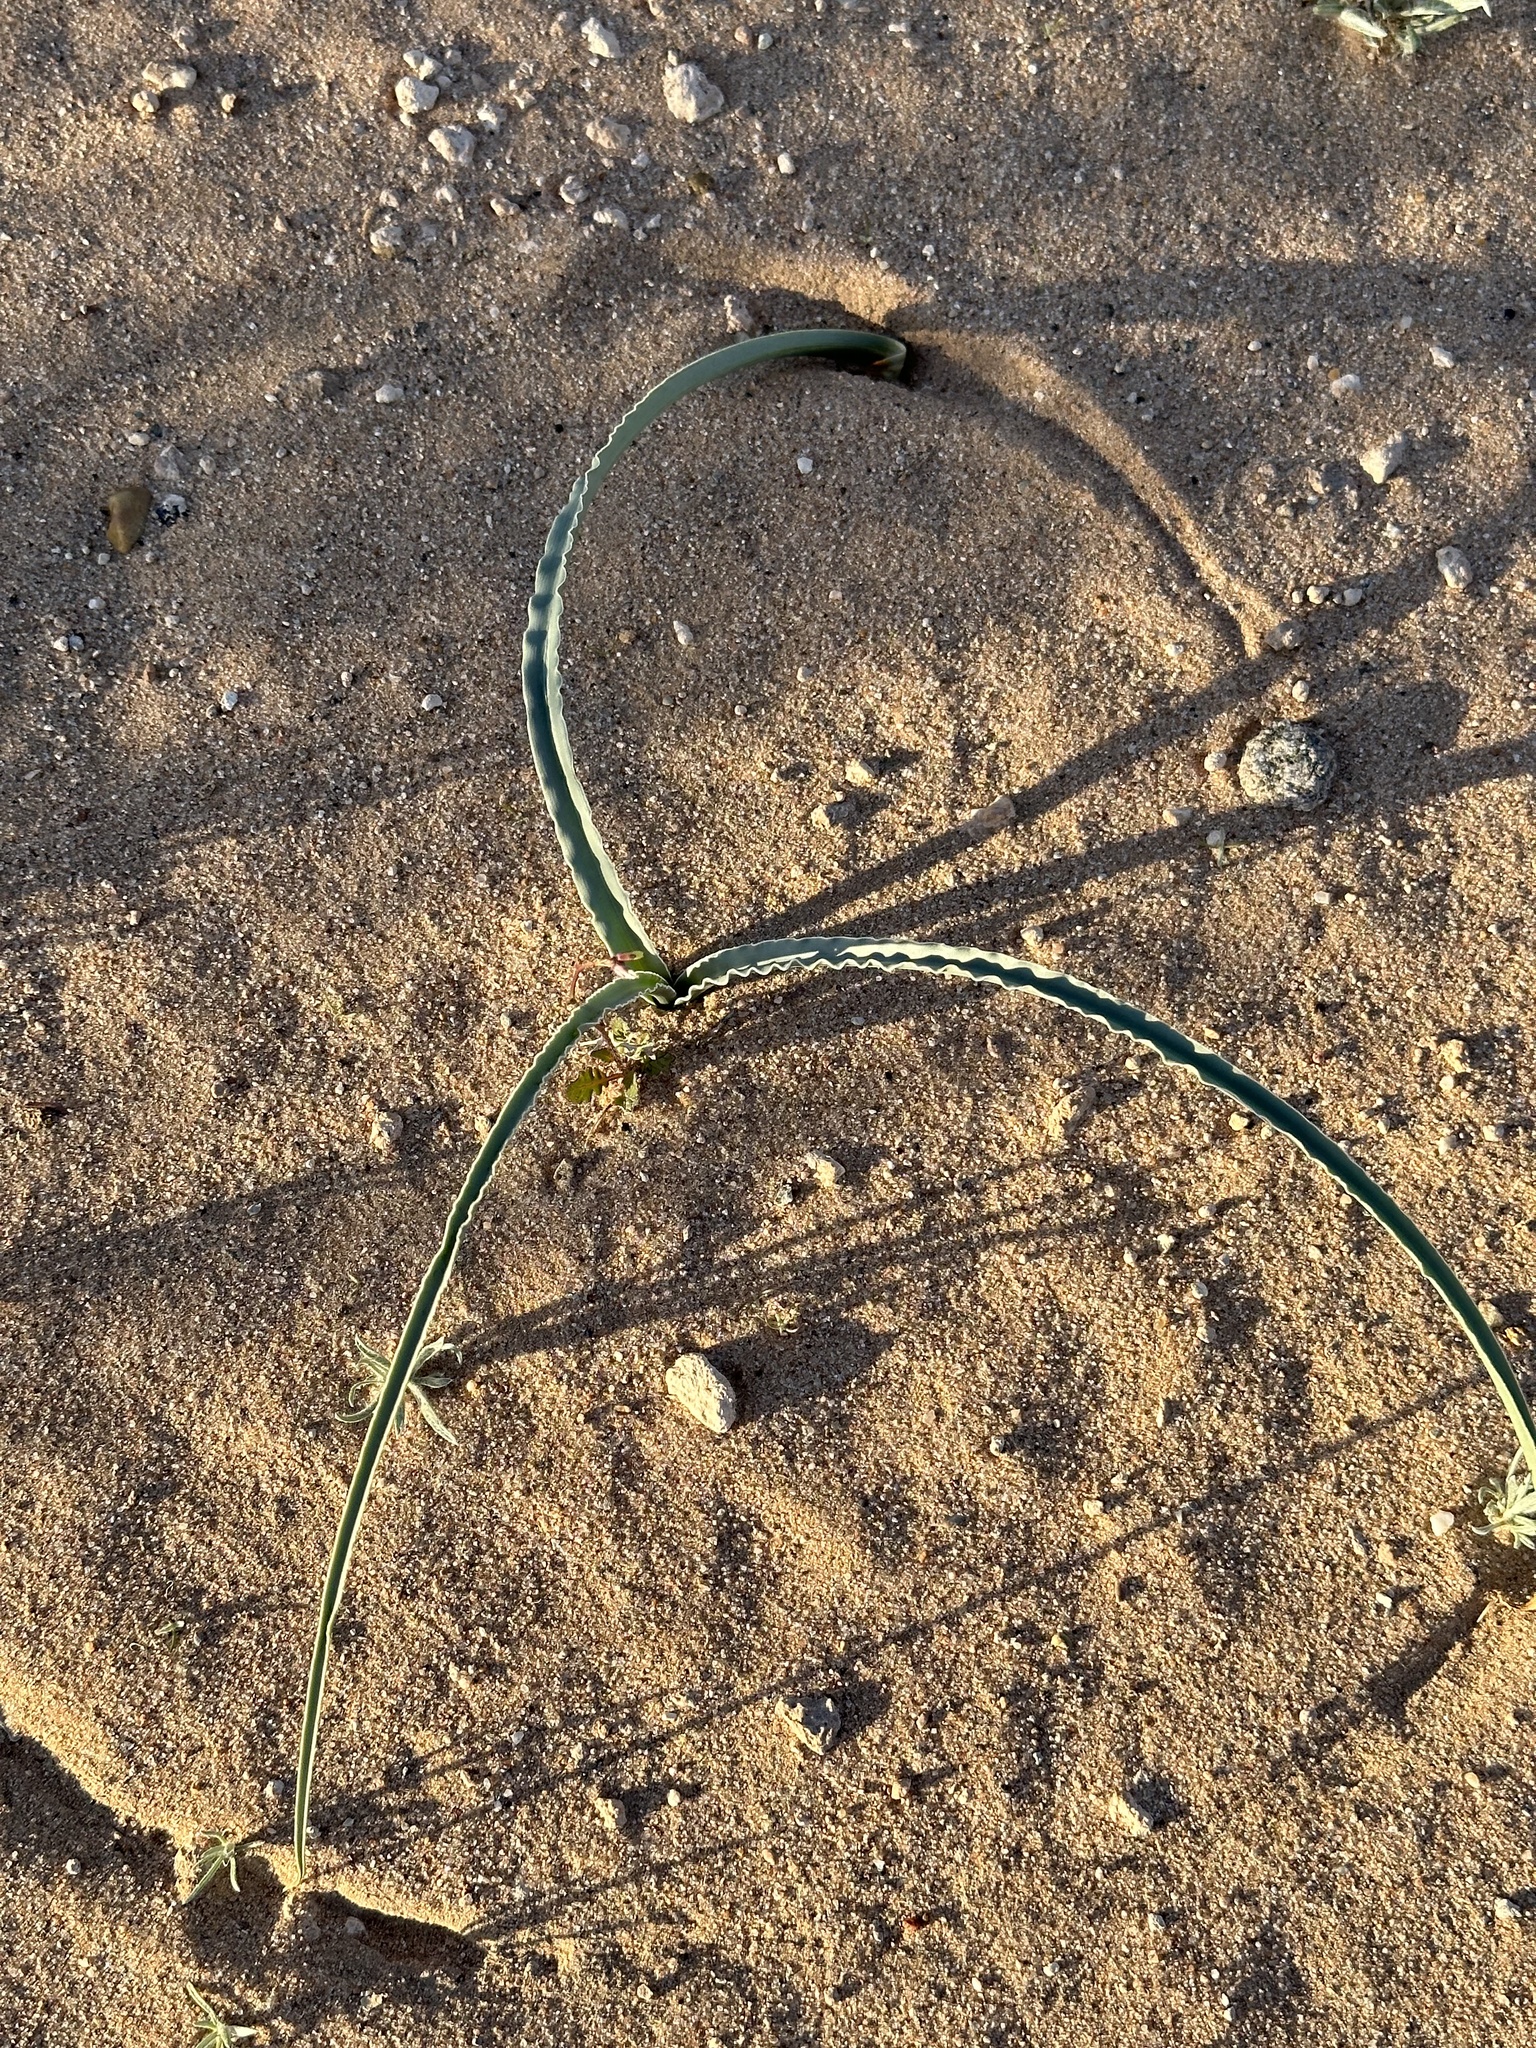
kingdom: Plantae
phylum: Tracheophyta
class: Liliopsida
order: Asparagales
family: Asparagaceae
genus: Hesperocallis
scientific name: Hesperocallis undulata
